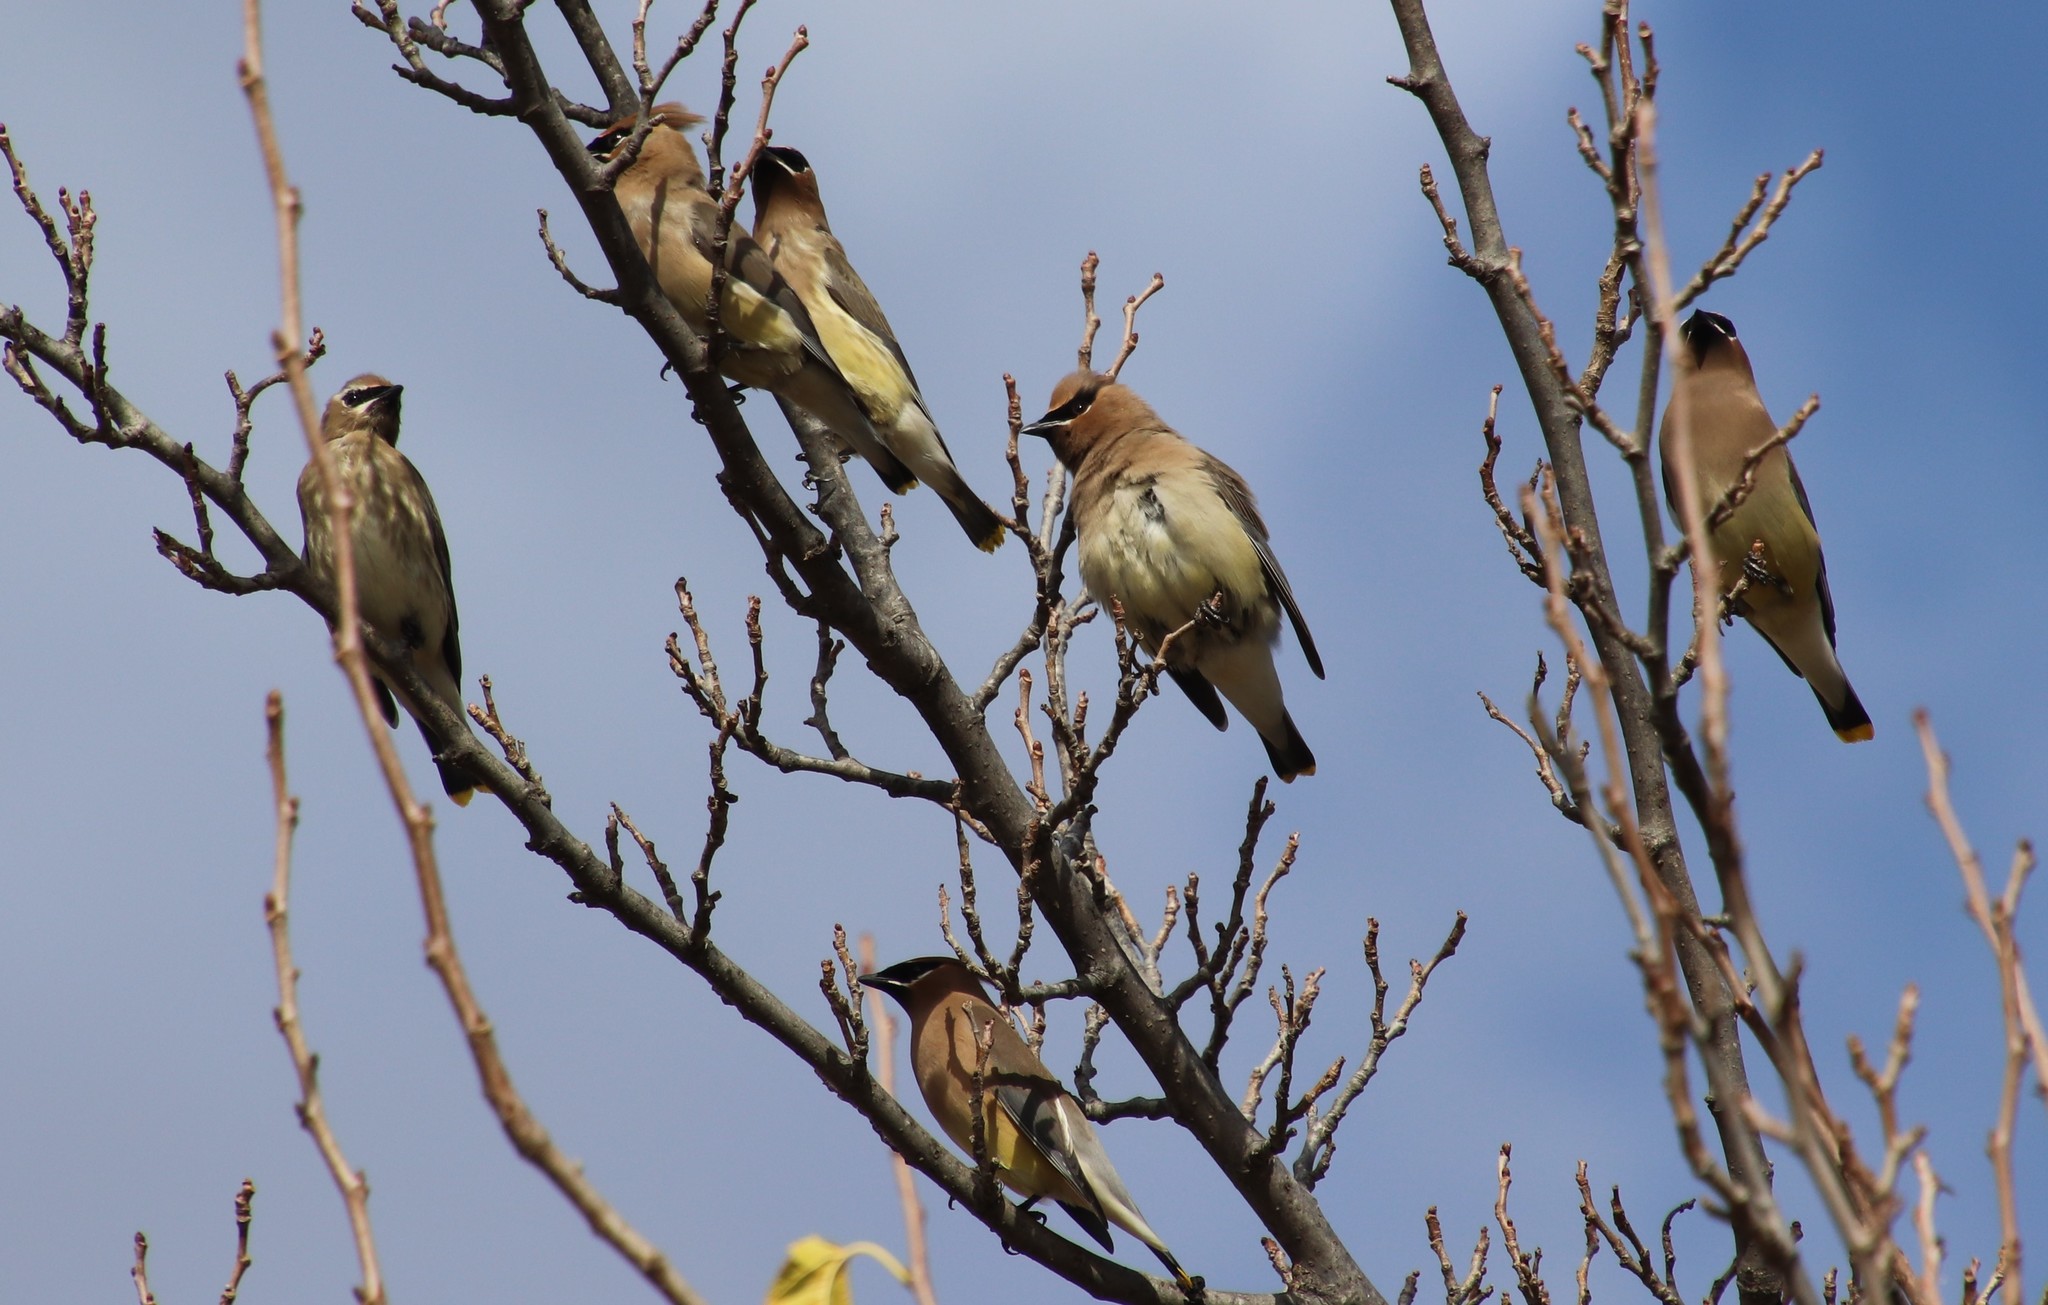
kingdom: Animalia
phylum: Chordata
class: Aves
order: Passeriformes
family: Bombycillidae
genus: Bombycilla
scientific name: Bombycilla cedrorum
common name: Cedar waxwing
